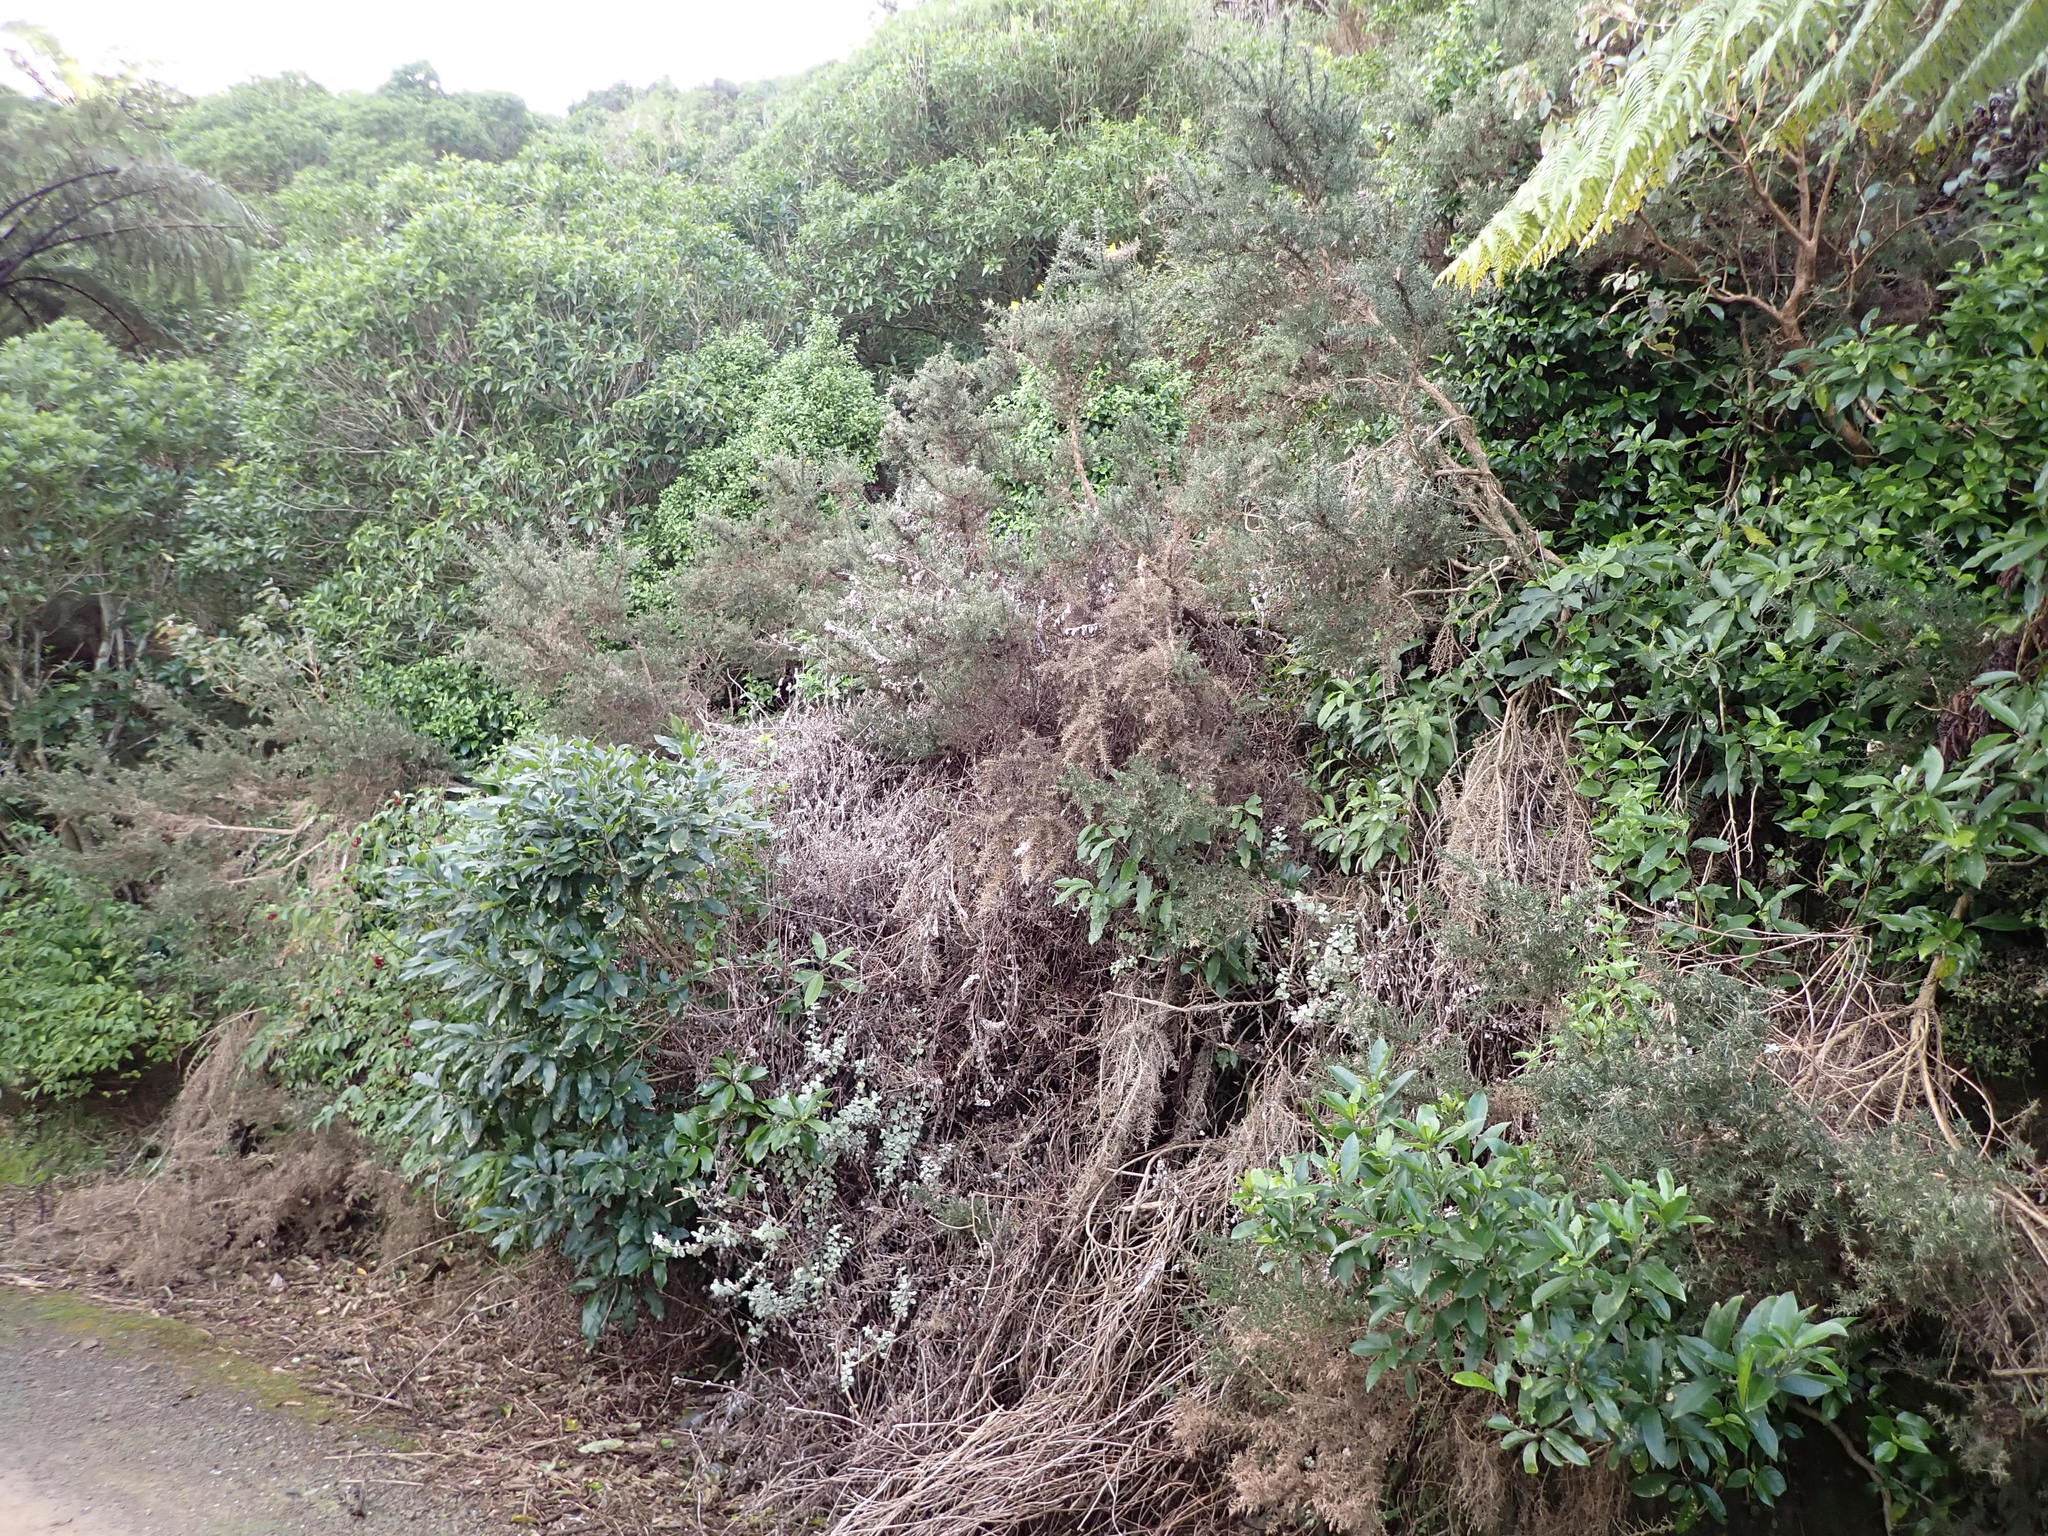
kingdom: Plantae
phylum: Tracheophyta
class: Magnoliopsida
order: Malpighiales
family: Violaceae
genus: Melicytus
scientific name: Melicytus ramiflorus
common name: Mahoe
